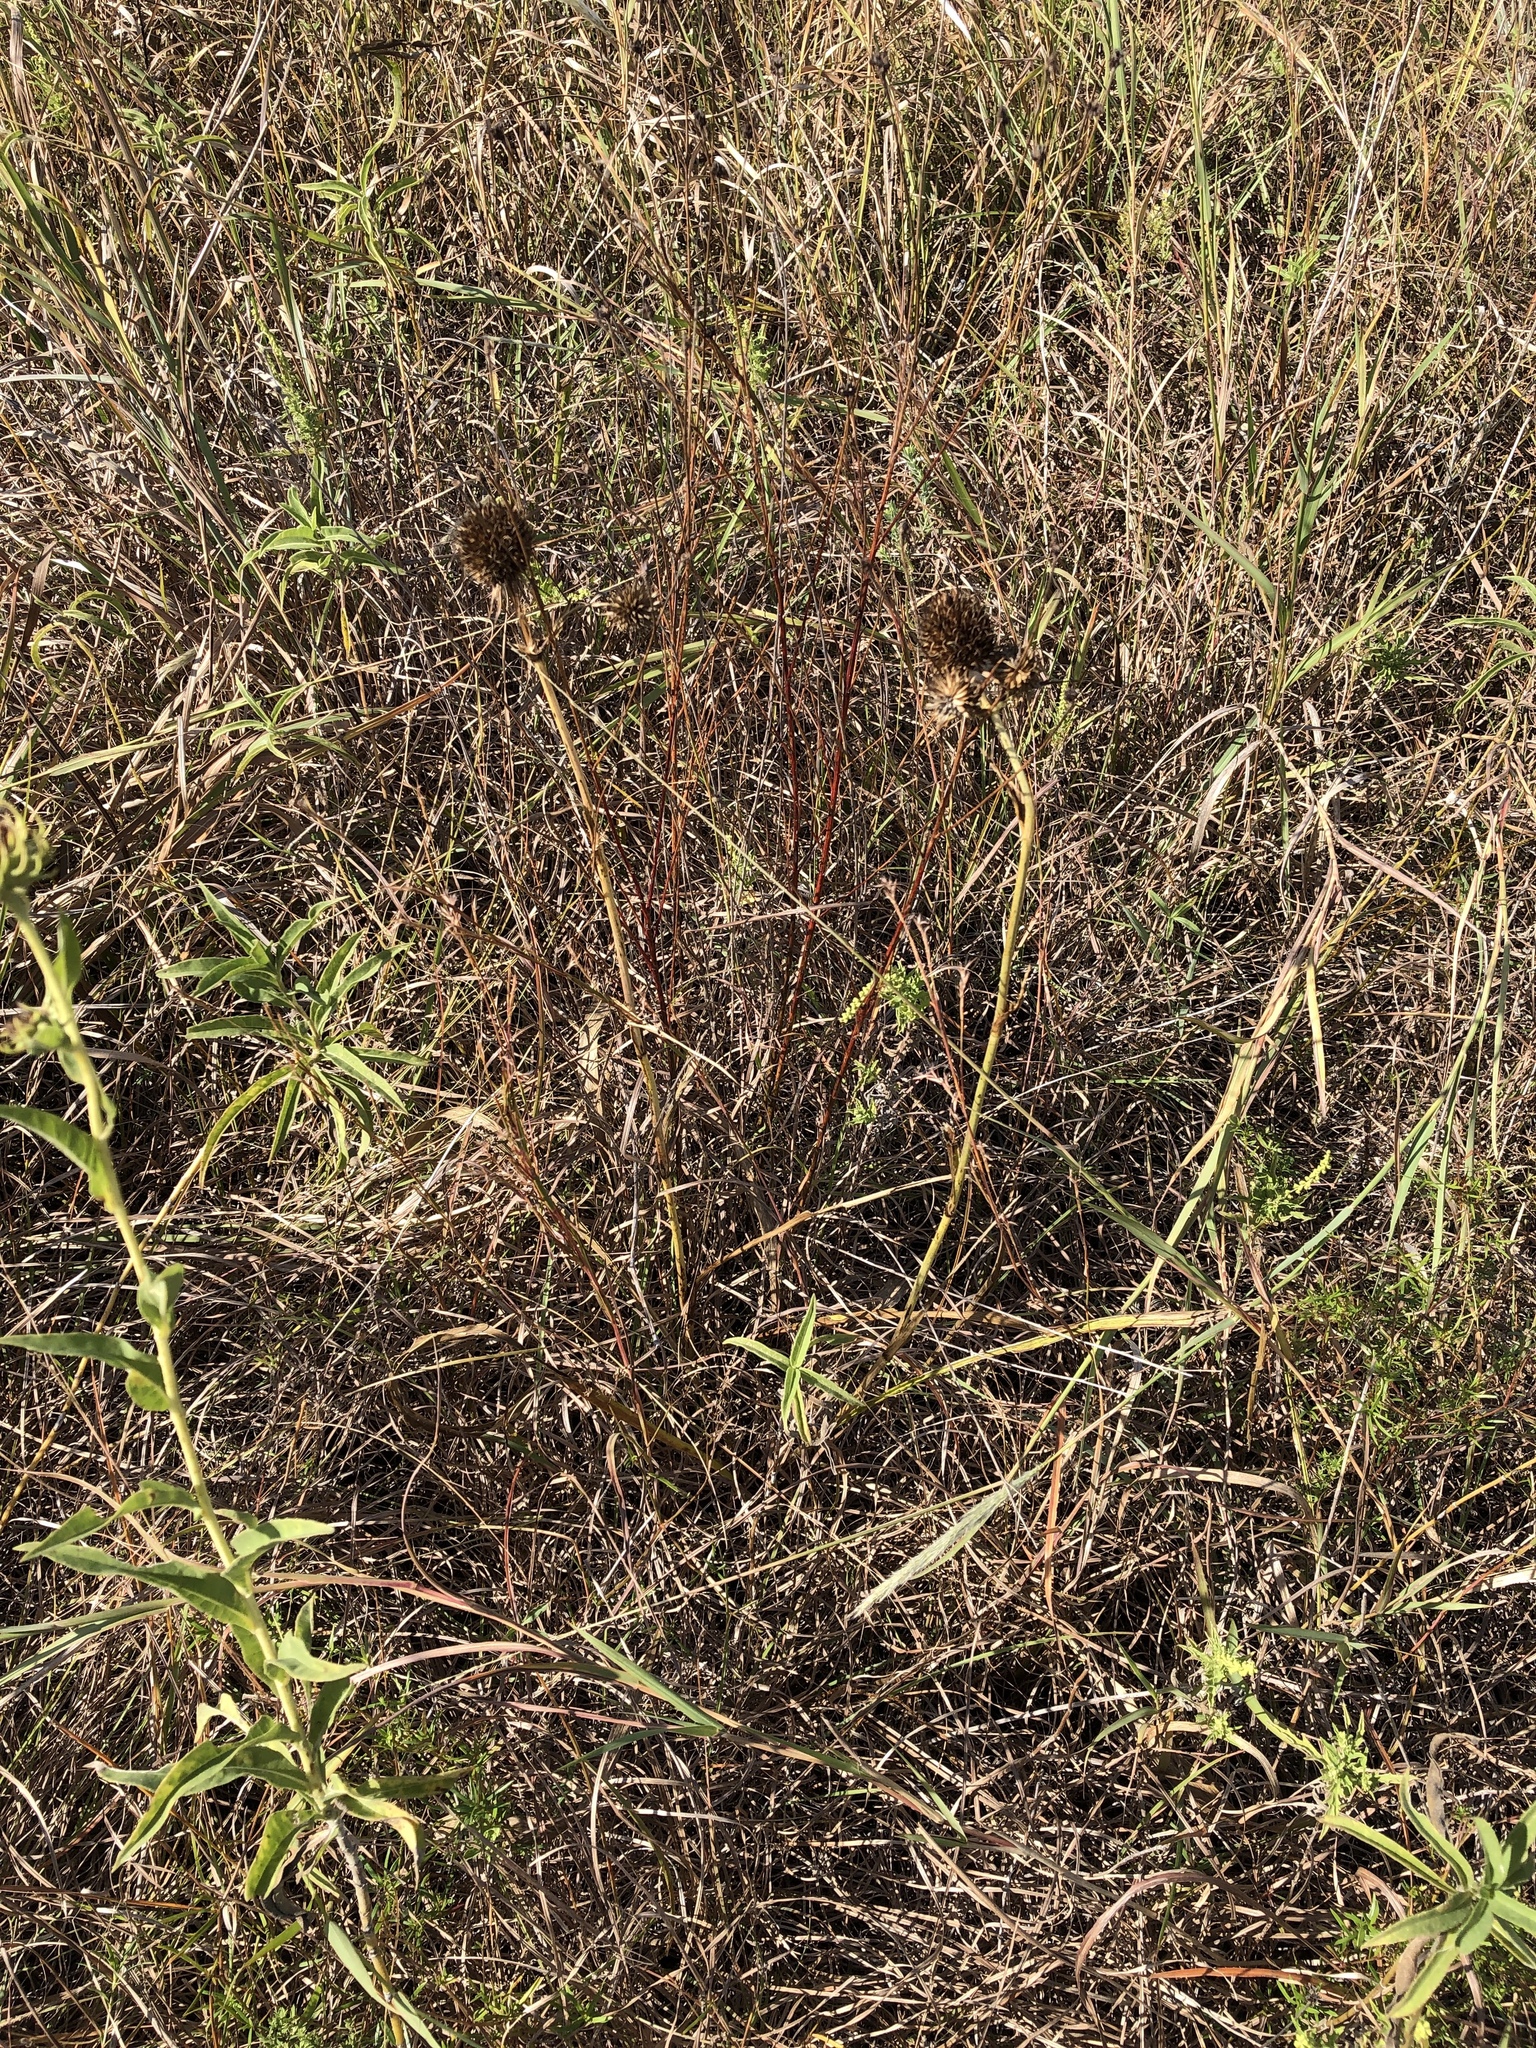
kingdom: Plantae
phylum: Tracheophyta
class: Magnoliopsida
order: Apiales
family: Apiaceae
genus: Eryngium
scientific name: Eryngium yuccifolium
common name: Button eryngo
